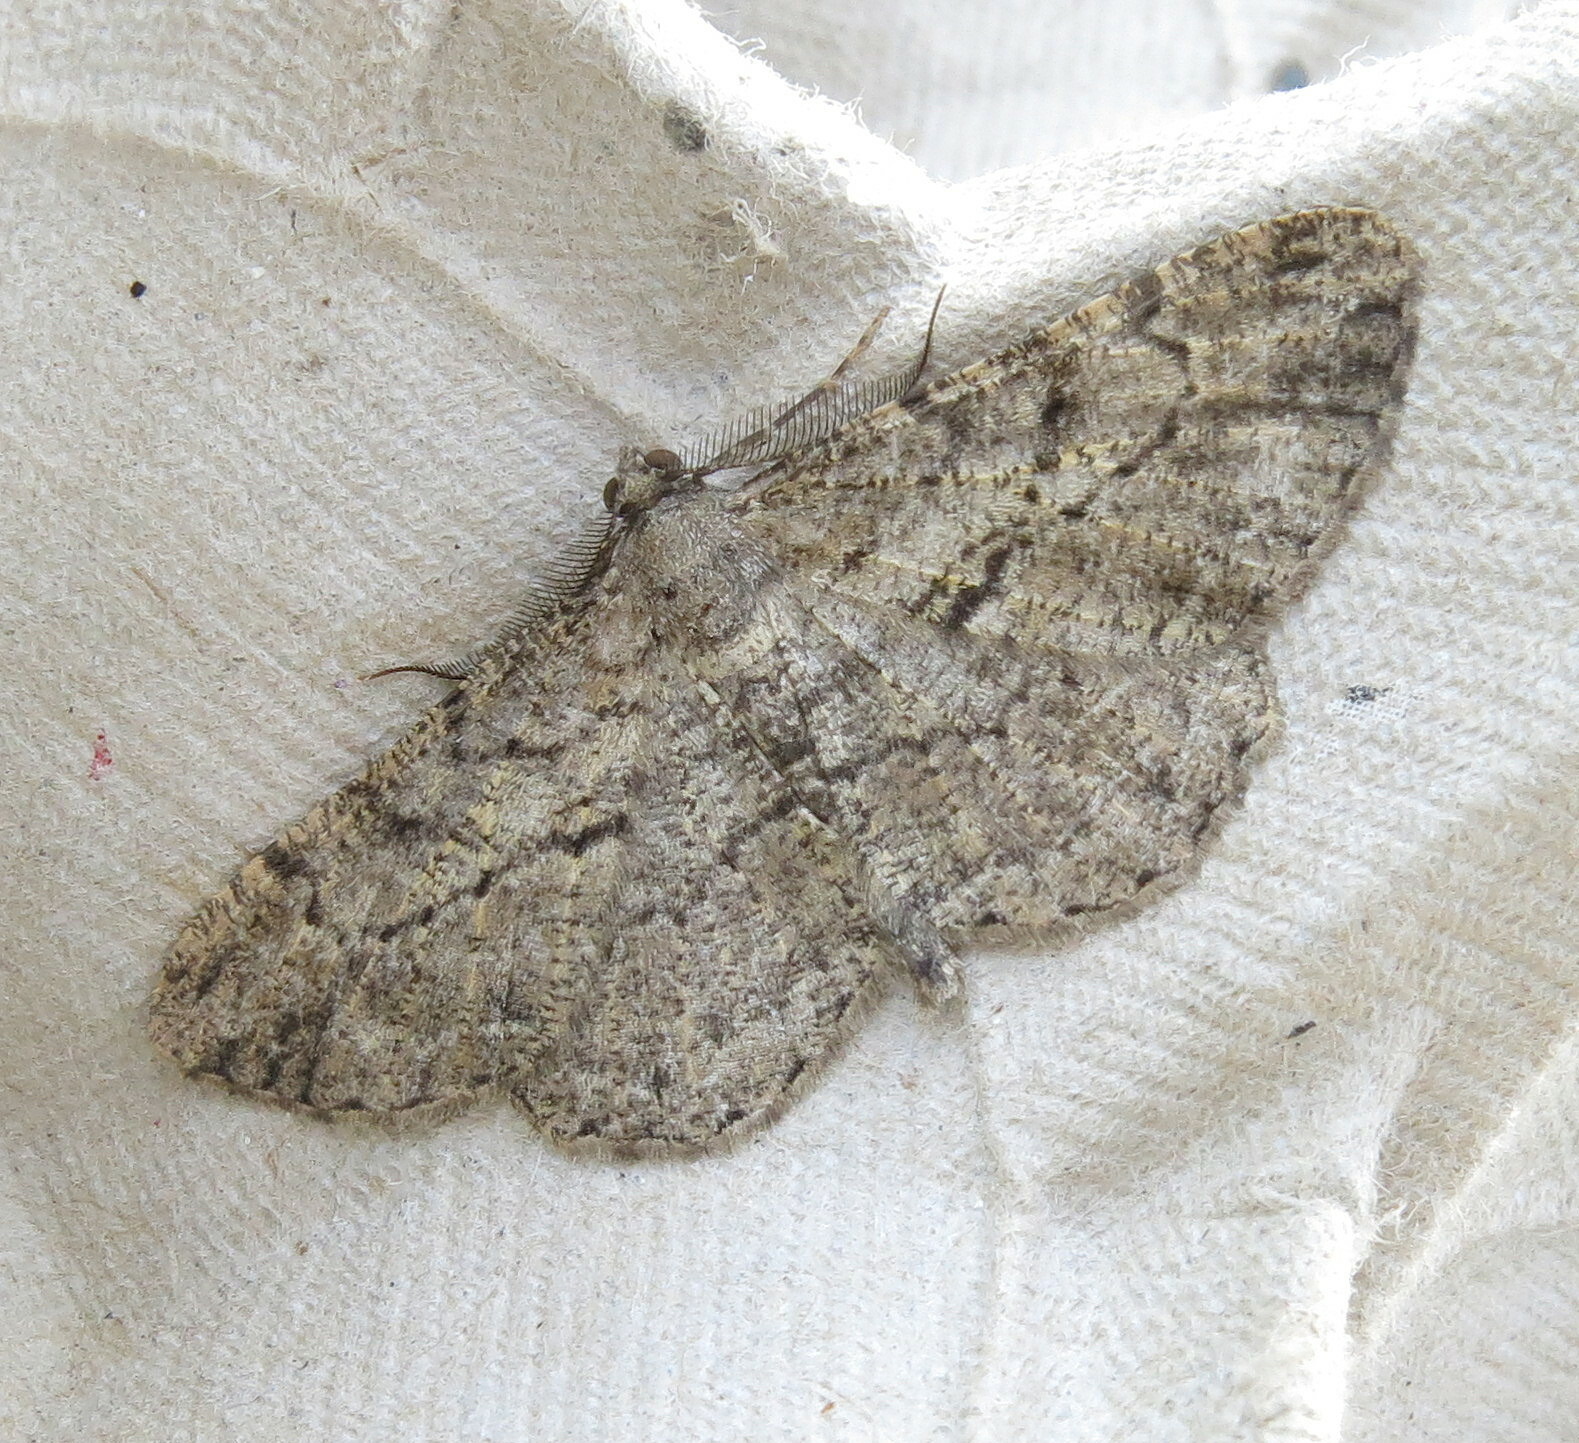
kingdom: Animalia
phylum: Arthropoda
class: Insecta
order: Lepidoptera
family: Geometridae
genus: Peribatodes
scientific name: Peribatodes rhomboidaria
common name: Willow beauty
